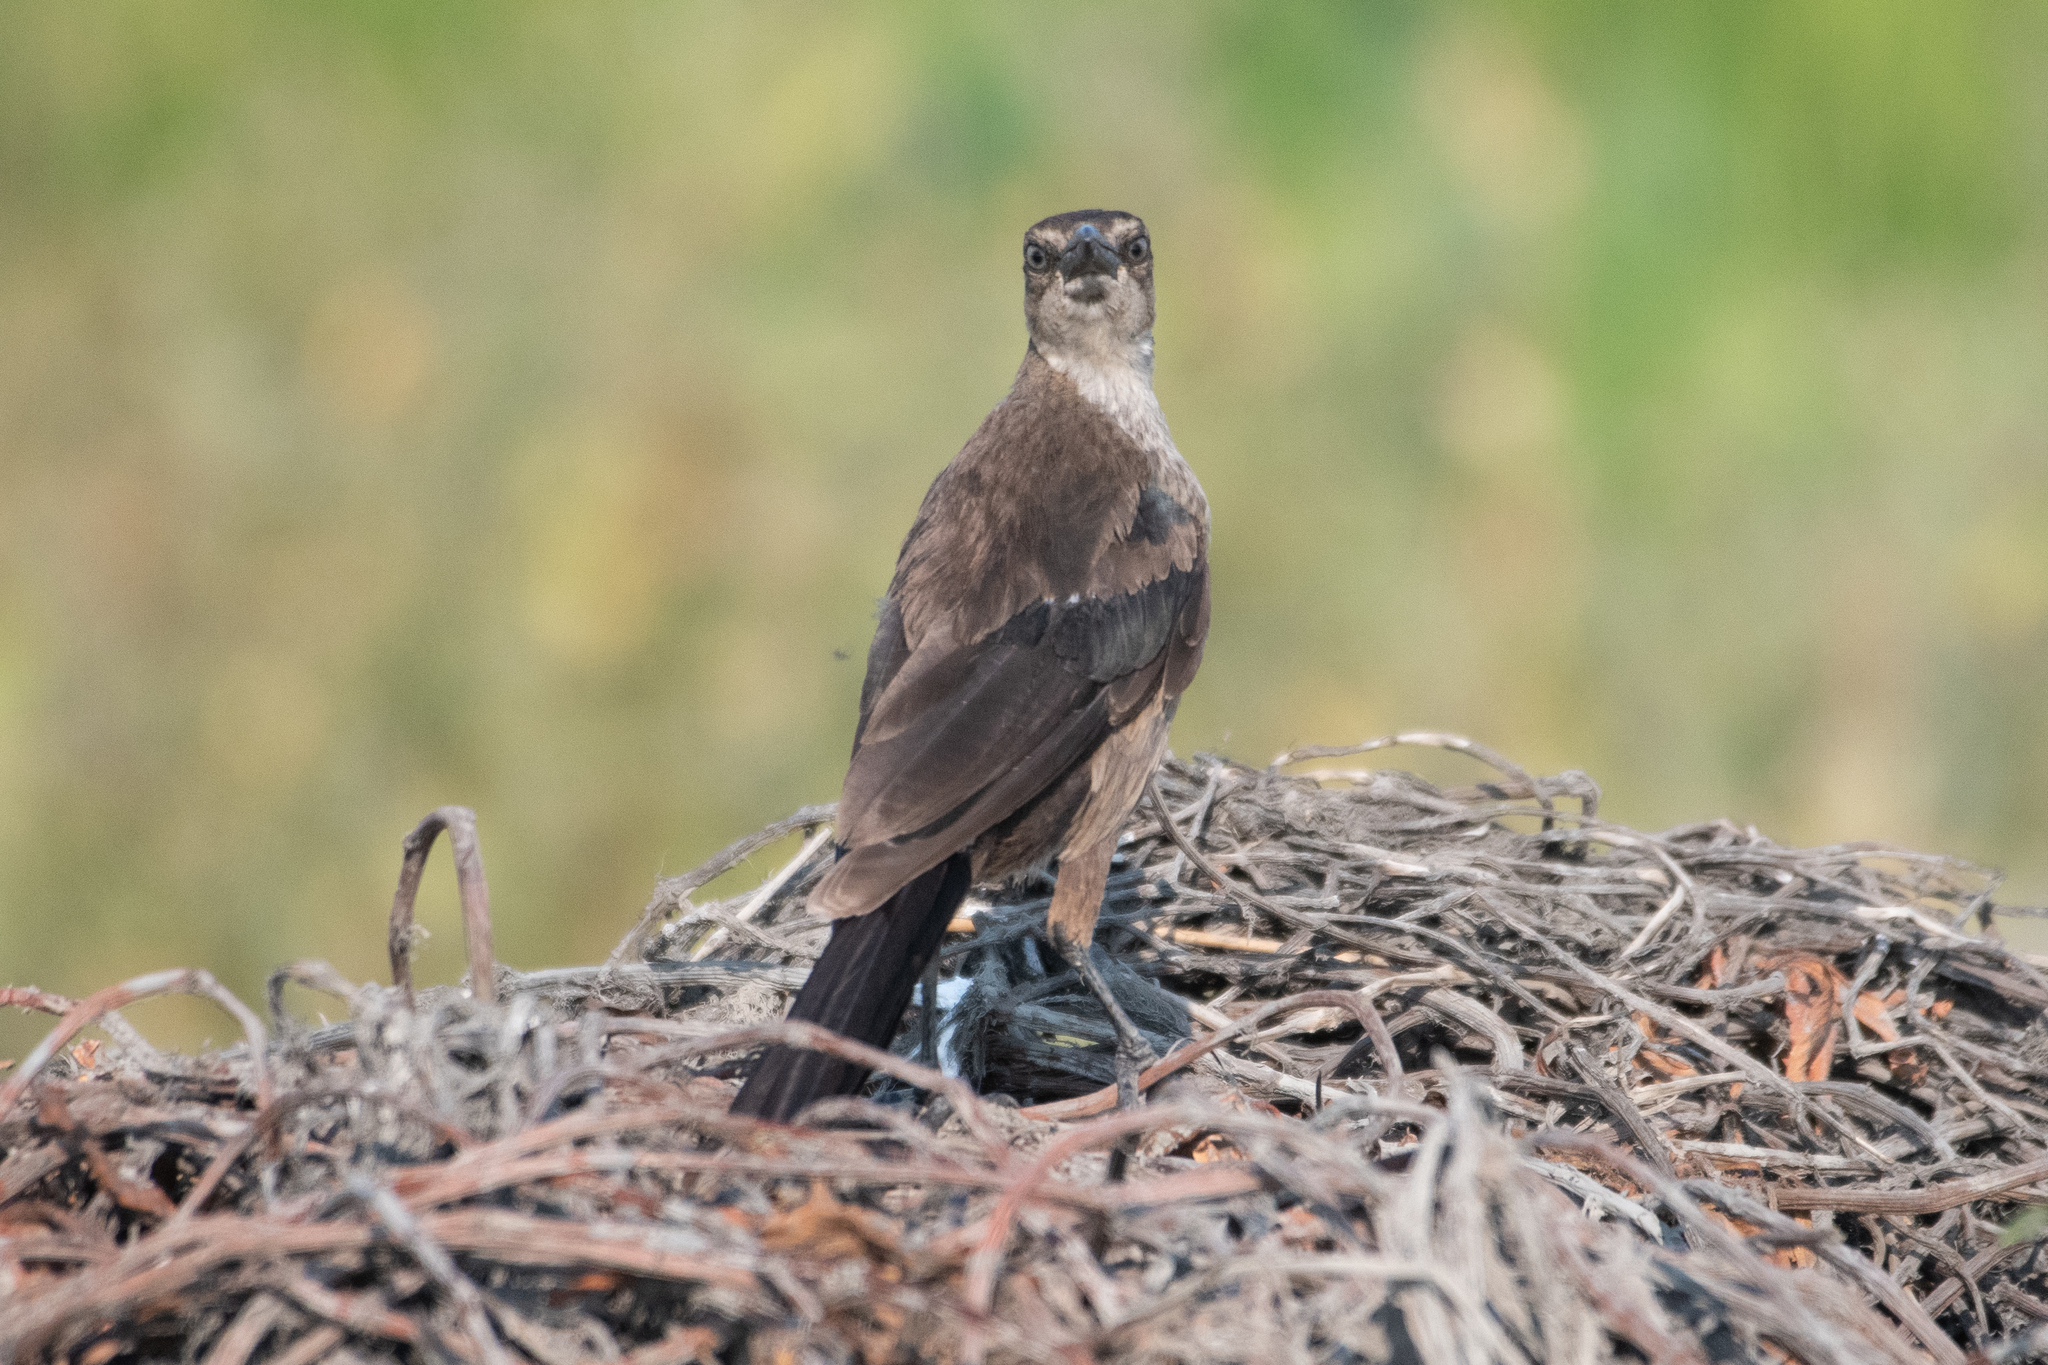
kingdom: Animalia
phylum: Chordata
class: Aves
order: Passeriformes
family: Icteridae
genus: Quiscalus
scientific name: Quiscalus mexicanus
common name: Great-tailed grackle
